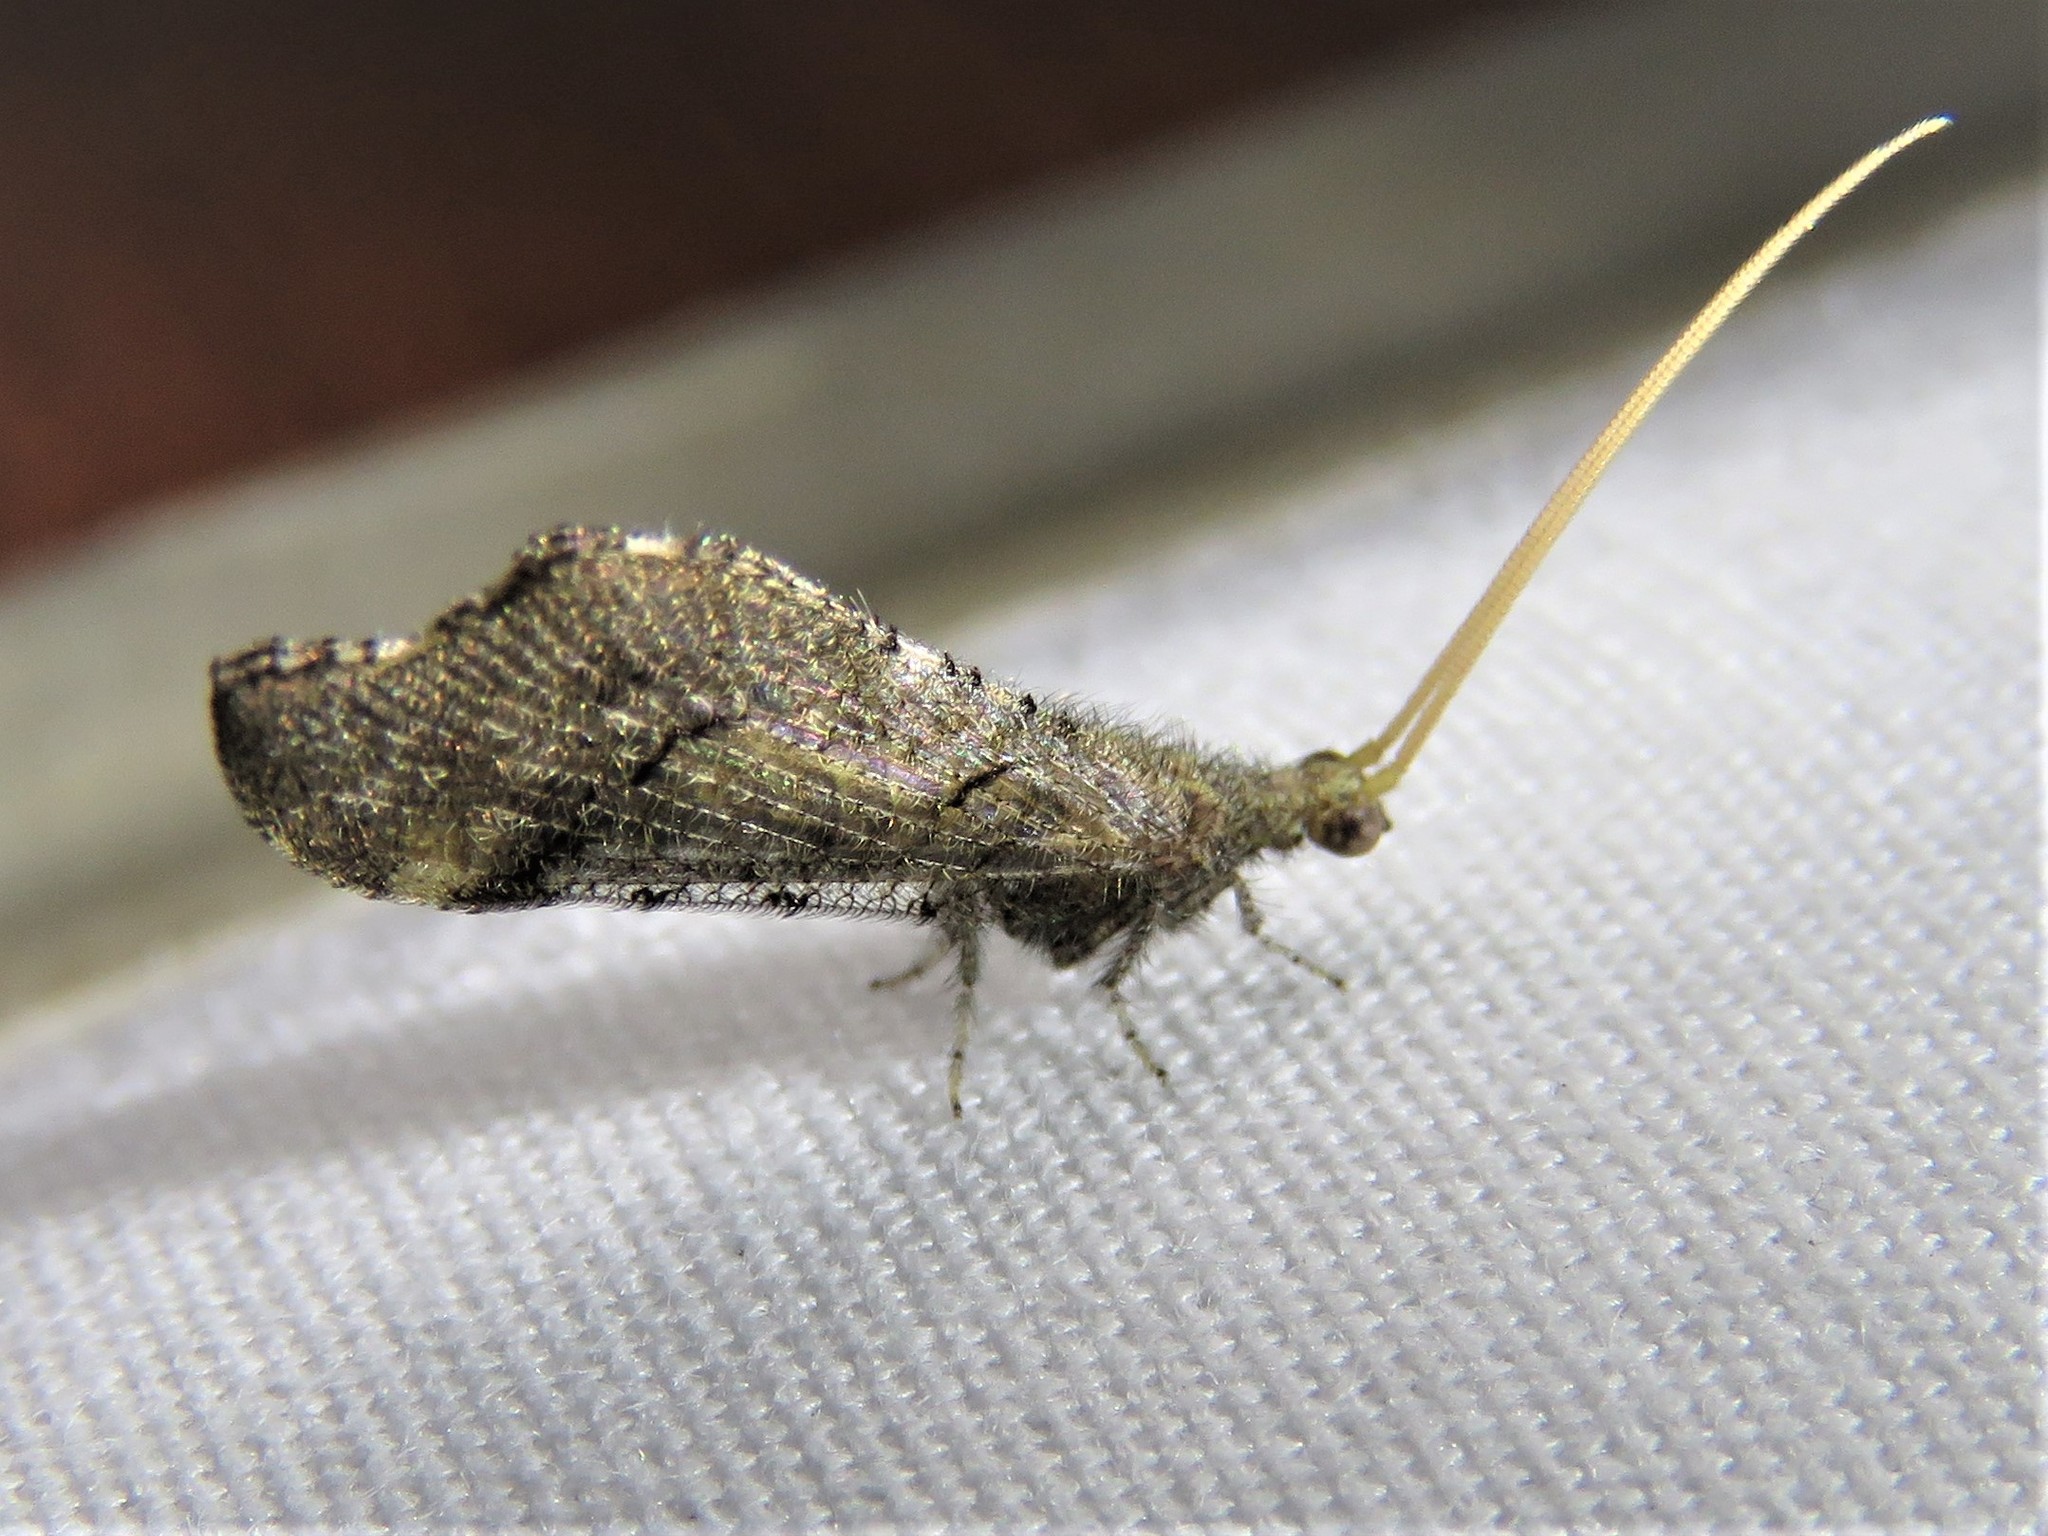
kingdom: Animalia
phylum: Arthropoda
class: Insecta
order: Neuroptera
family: Berothidae
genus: Lomamyia
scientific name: Lomamyia squamosa
